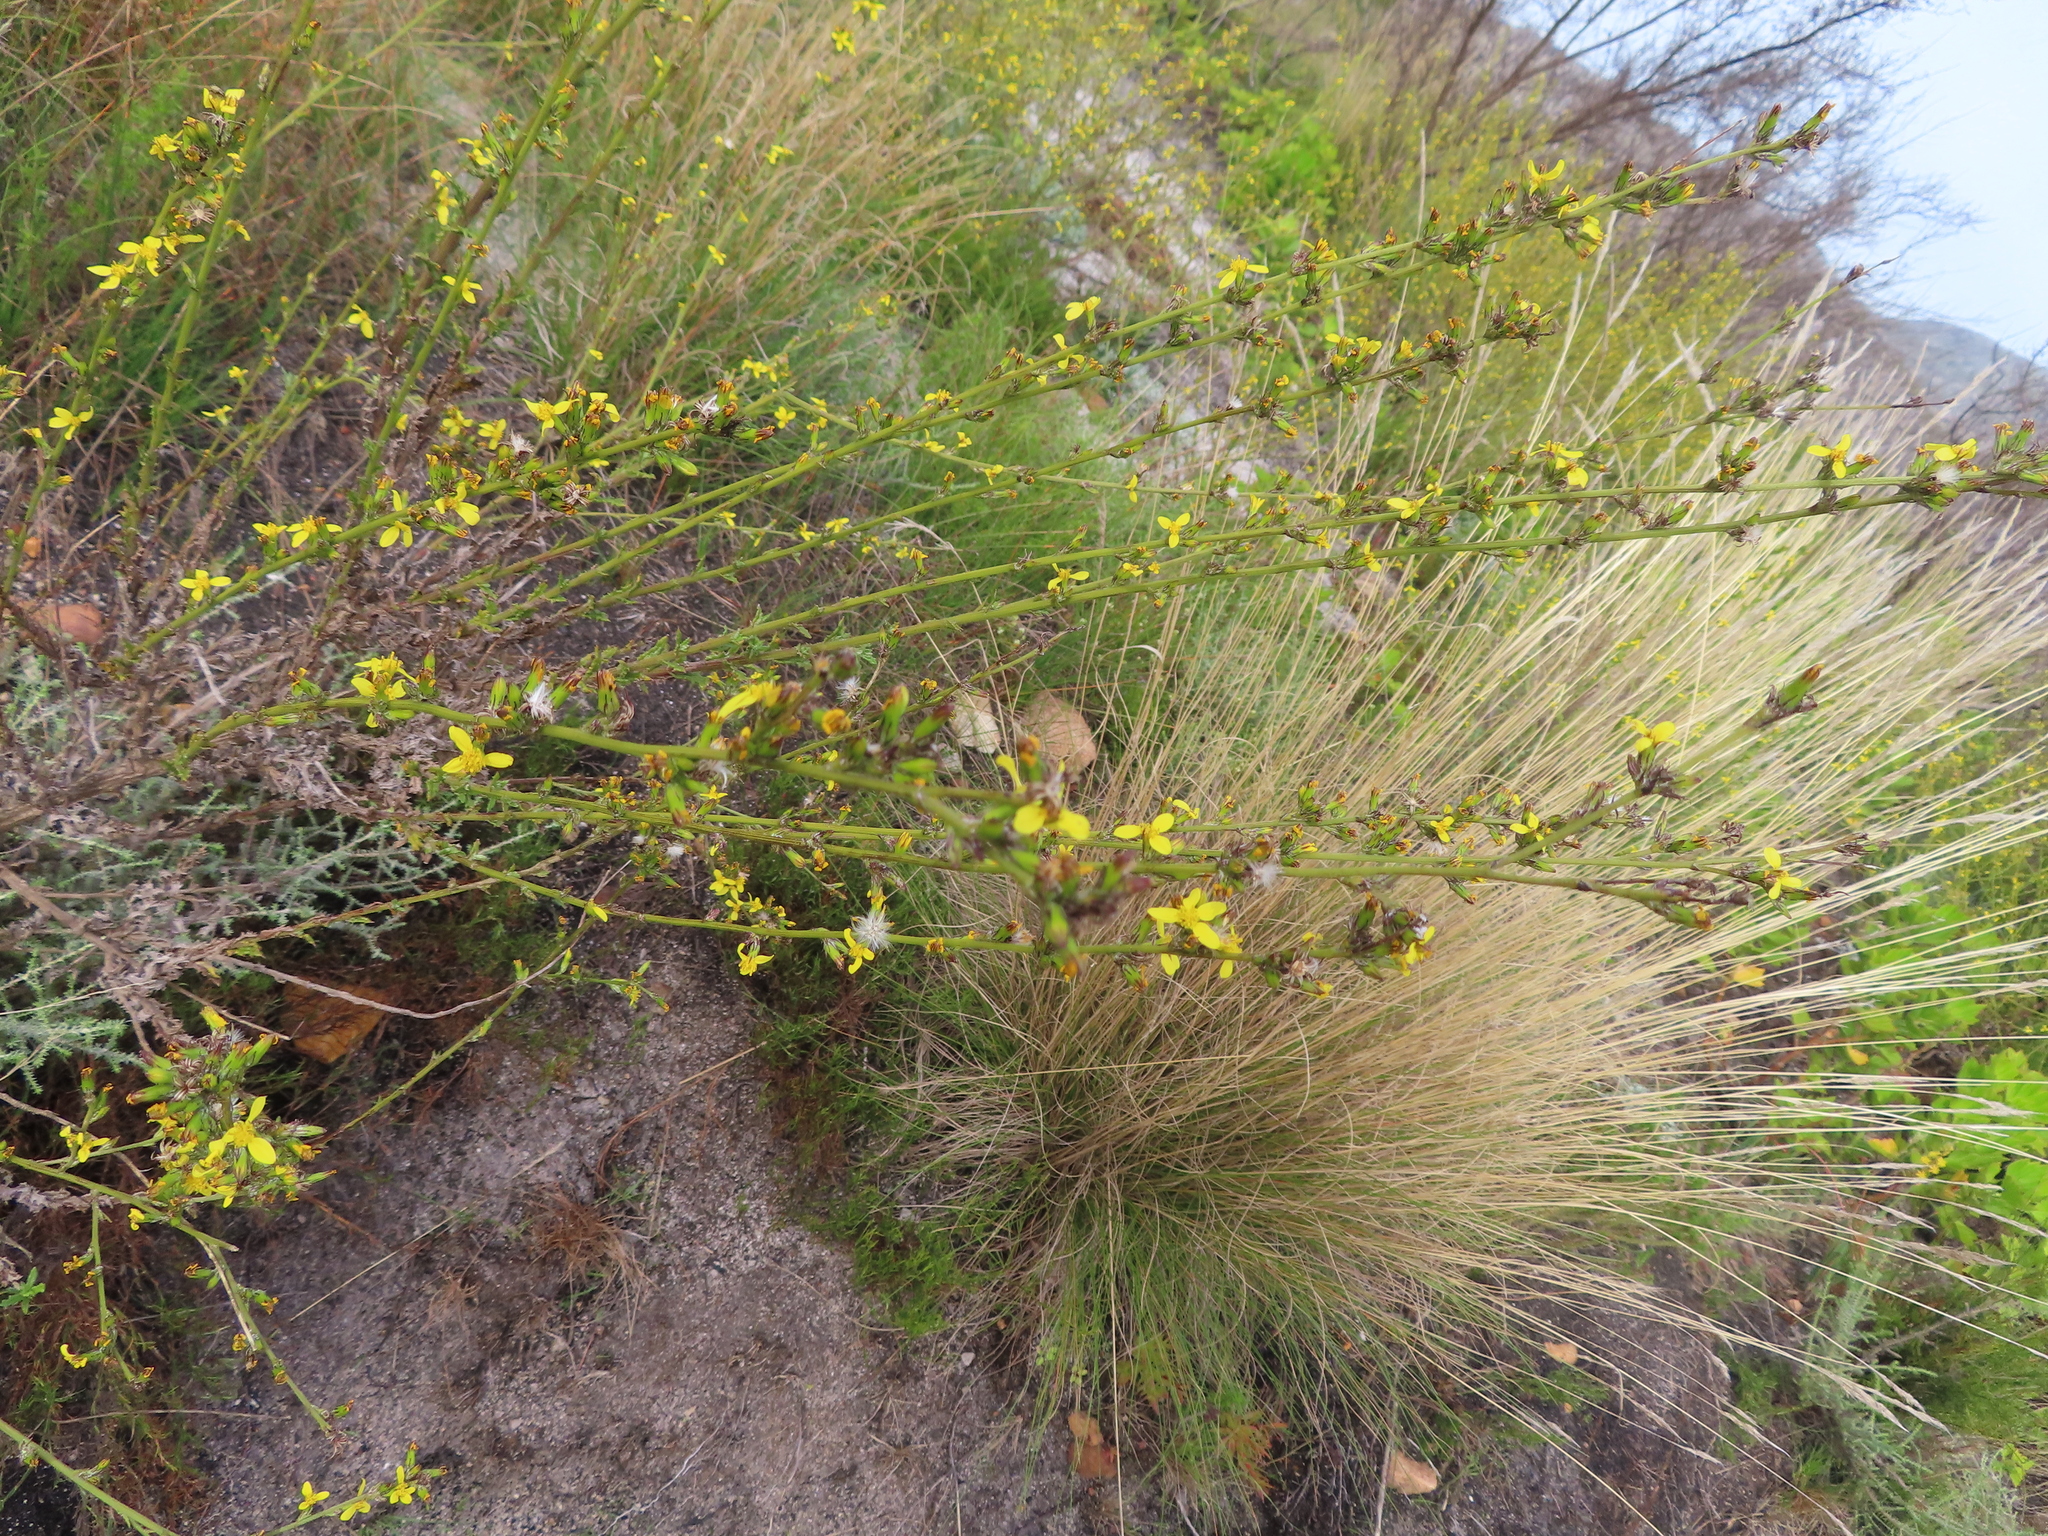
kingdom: Plantae
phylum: Tracheophyta
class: Magnoliopsida
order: Asterales
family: Asteraceae
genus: Senecio
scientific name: Senecio pubigerus
